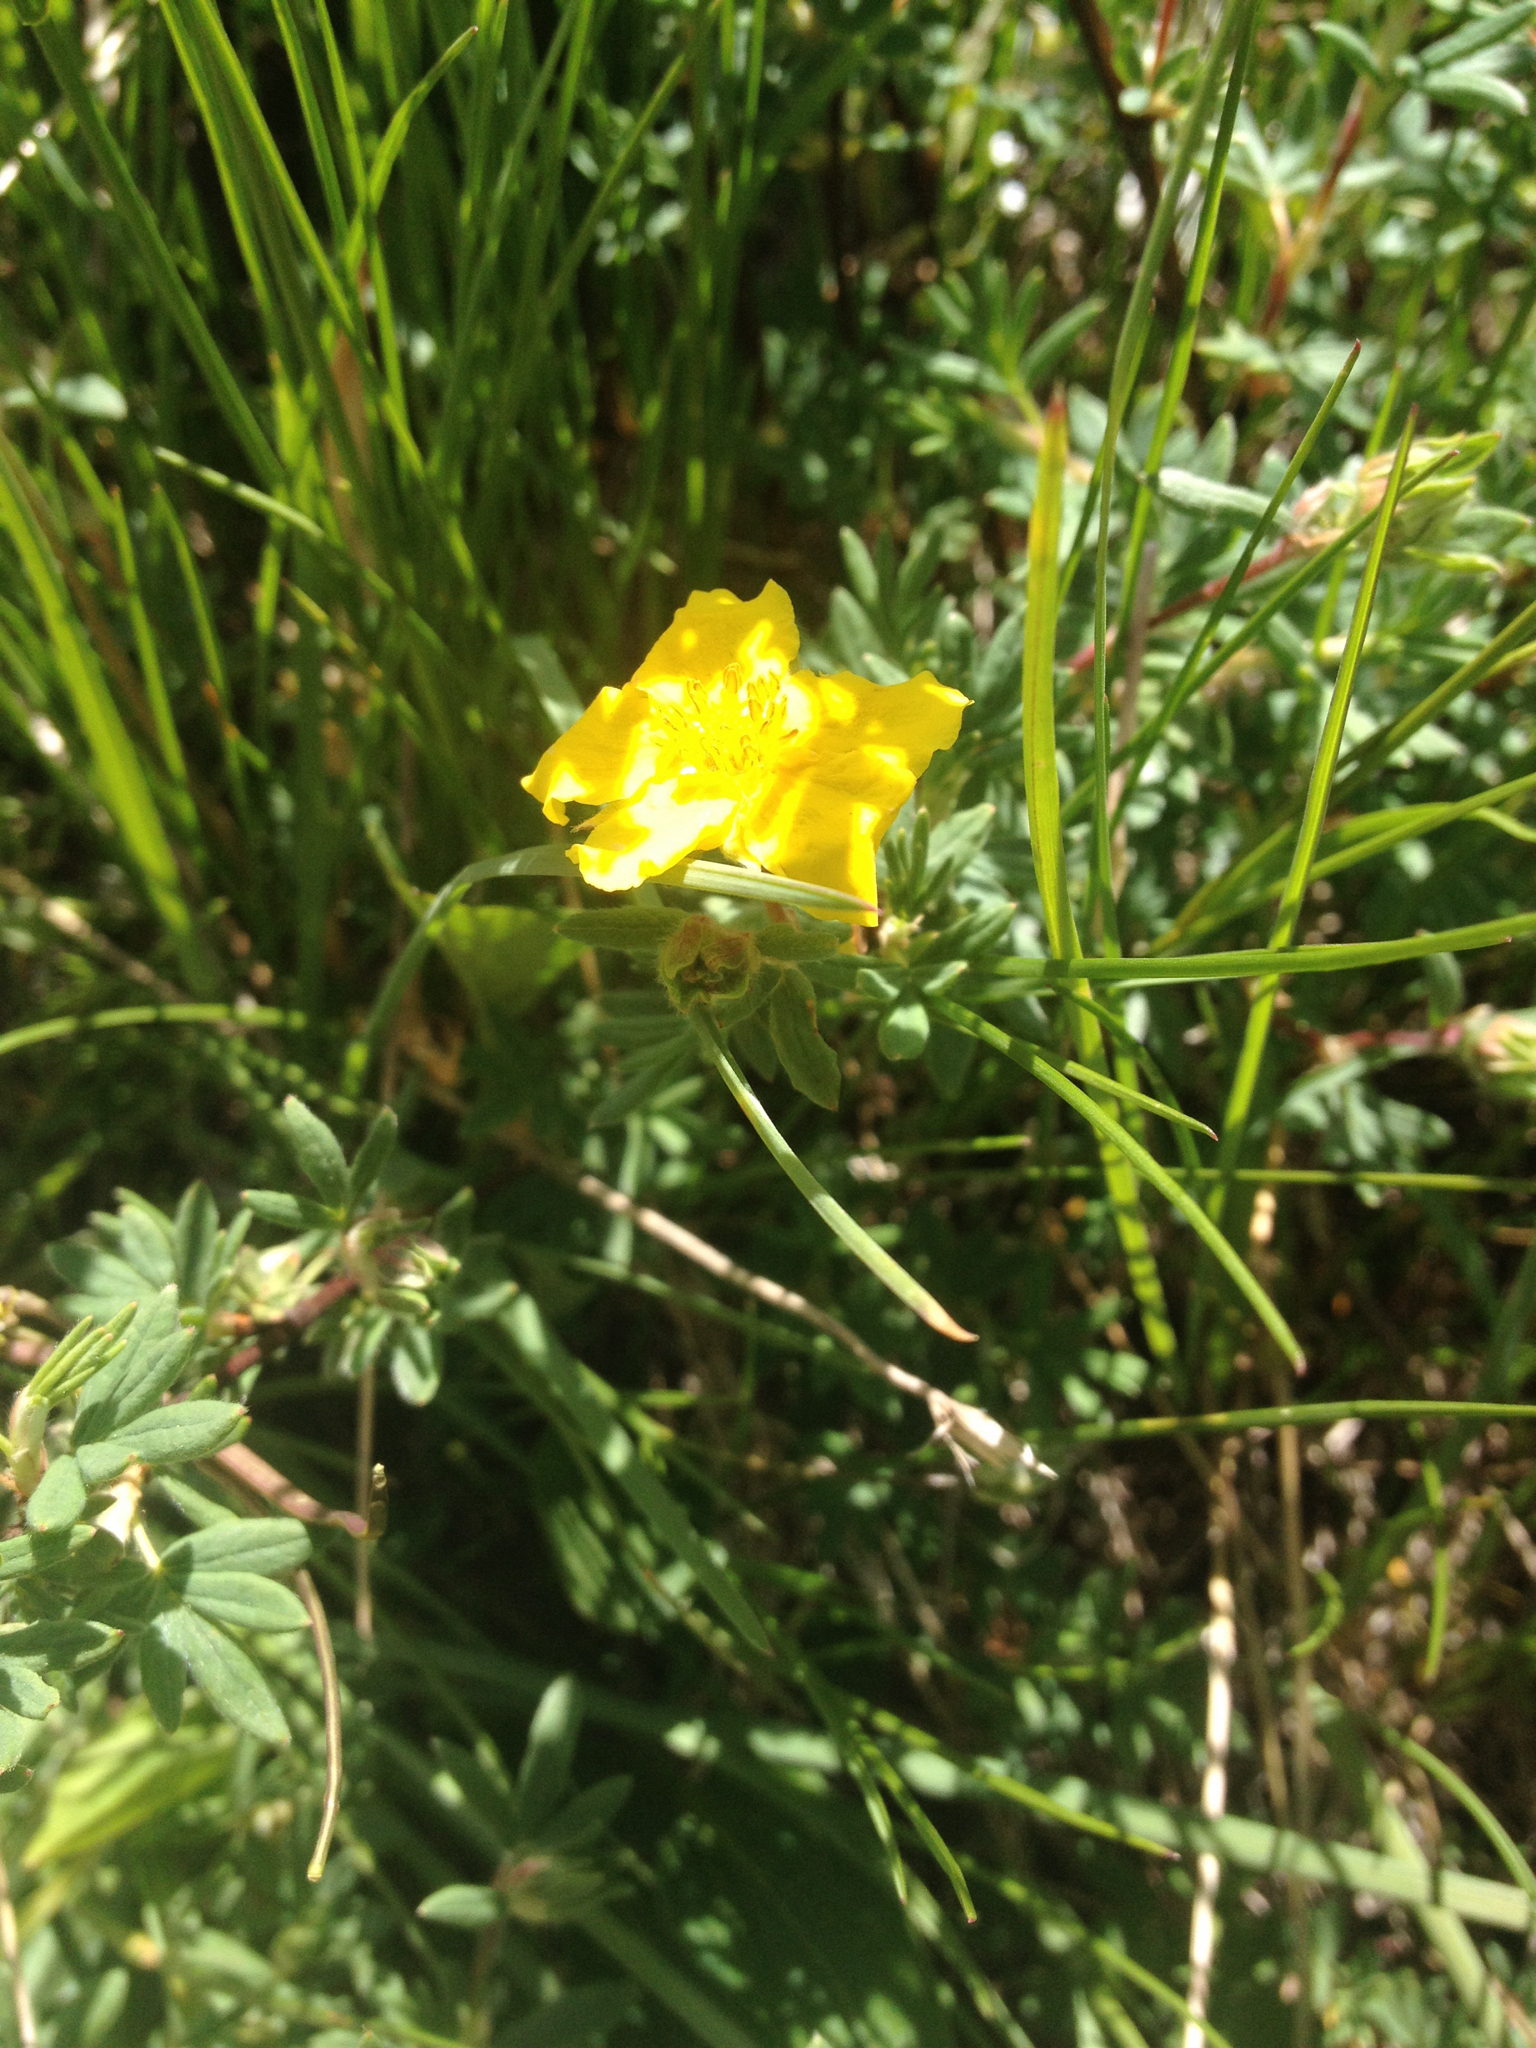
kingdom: Plantae
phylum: Tracheophyta
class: Magnoliopsida
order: Rosales
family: Rosaceae
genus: Dasiphora
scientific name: Dasiphora fruticosa
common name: Shrubby cinquefoil
